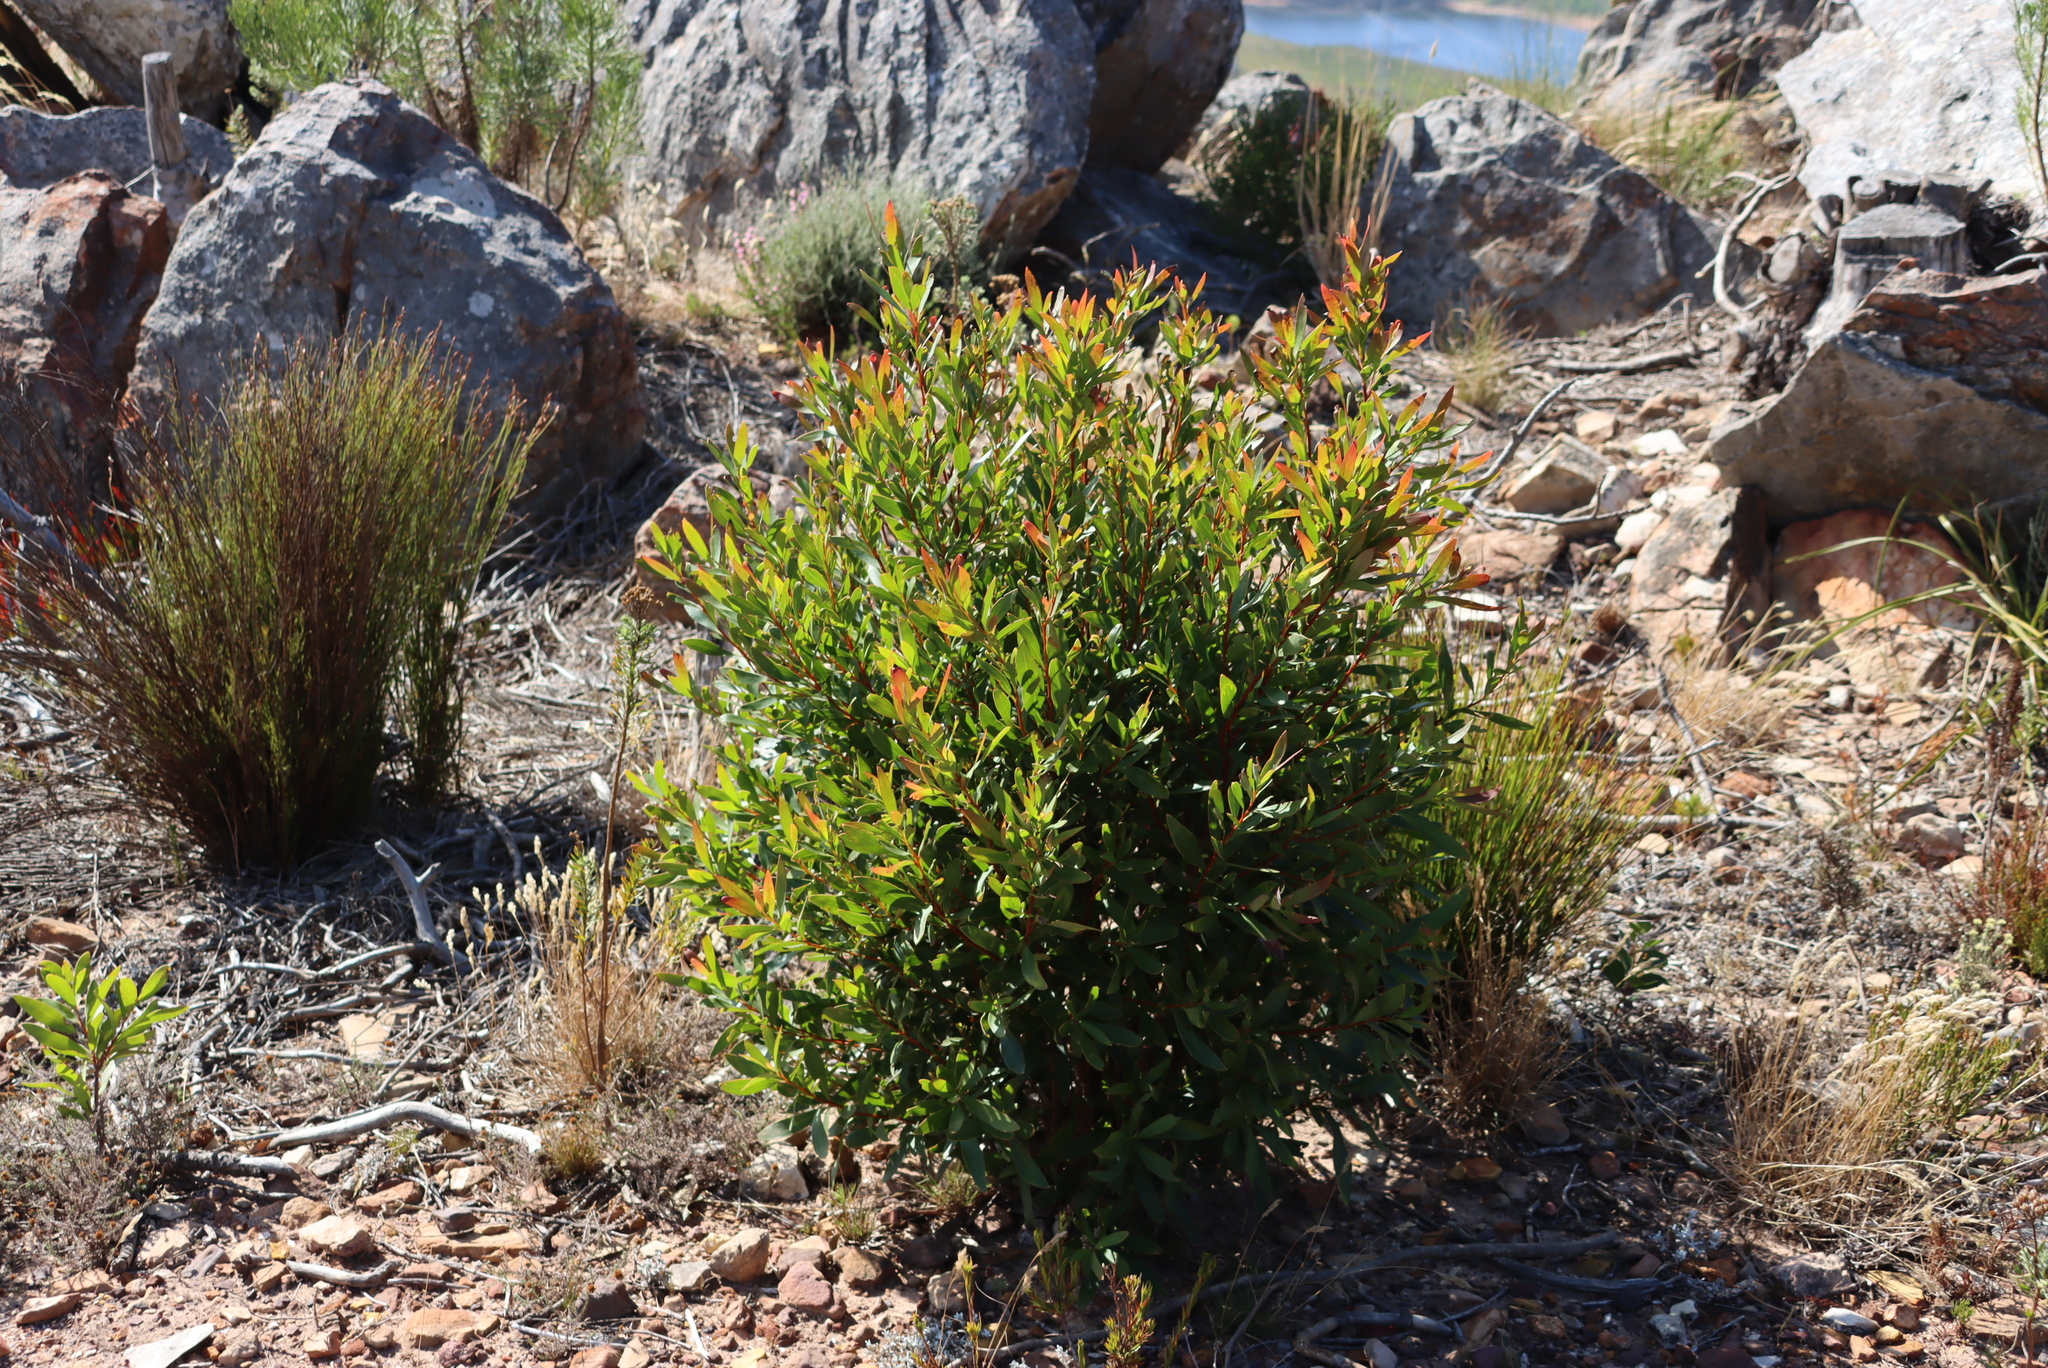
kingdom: Plantae
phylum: Tracheophyta
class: Magnoliopsida
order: Proteales
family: Proteaceae
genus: Hakea
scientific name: Hakea salicifolia
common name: Willow hakea
